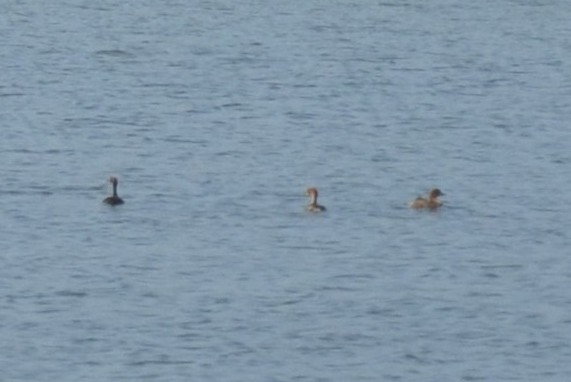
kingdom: Animalia
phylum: Chordata
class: Aves
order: Podicipediformes
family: Podicipedidae
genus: Tachybaptus
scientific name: Tachybaptus ruficollis
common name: Little grebe
